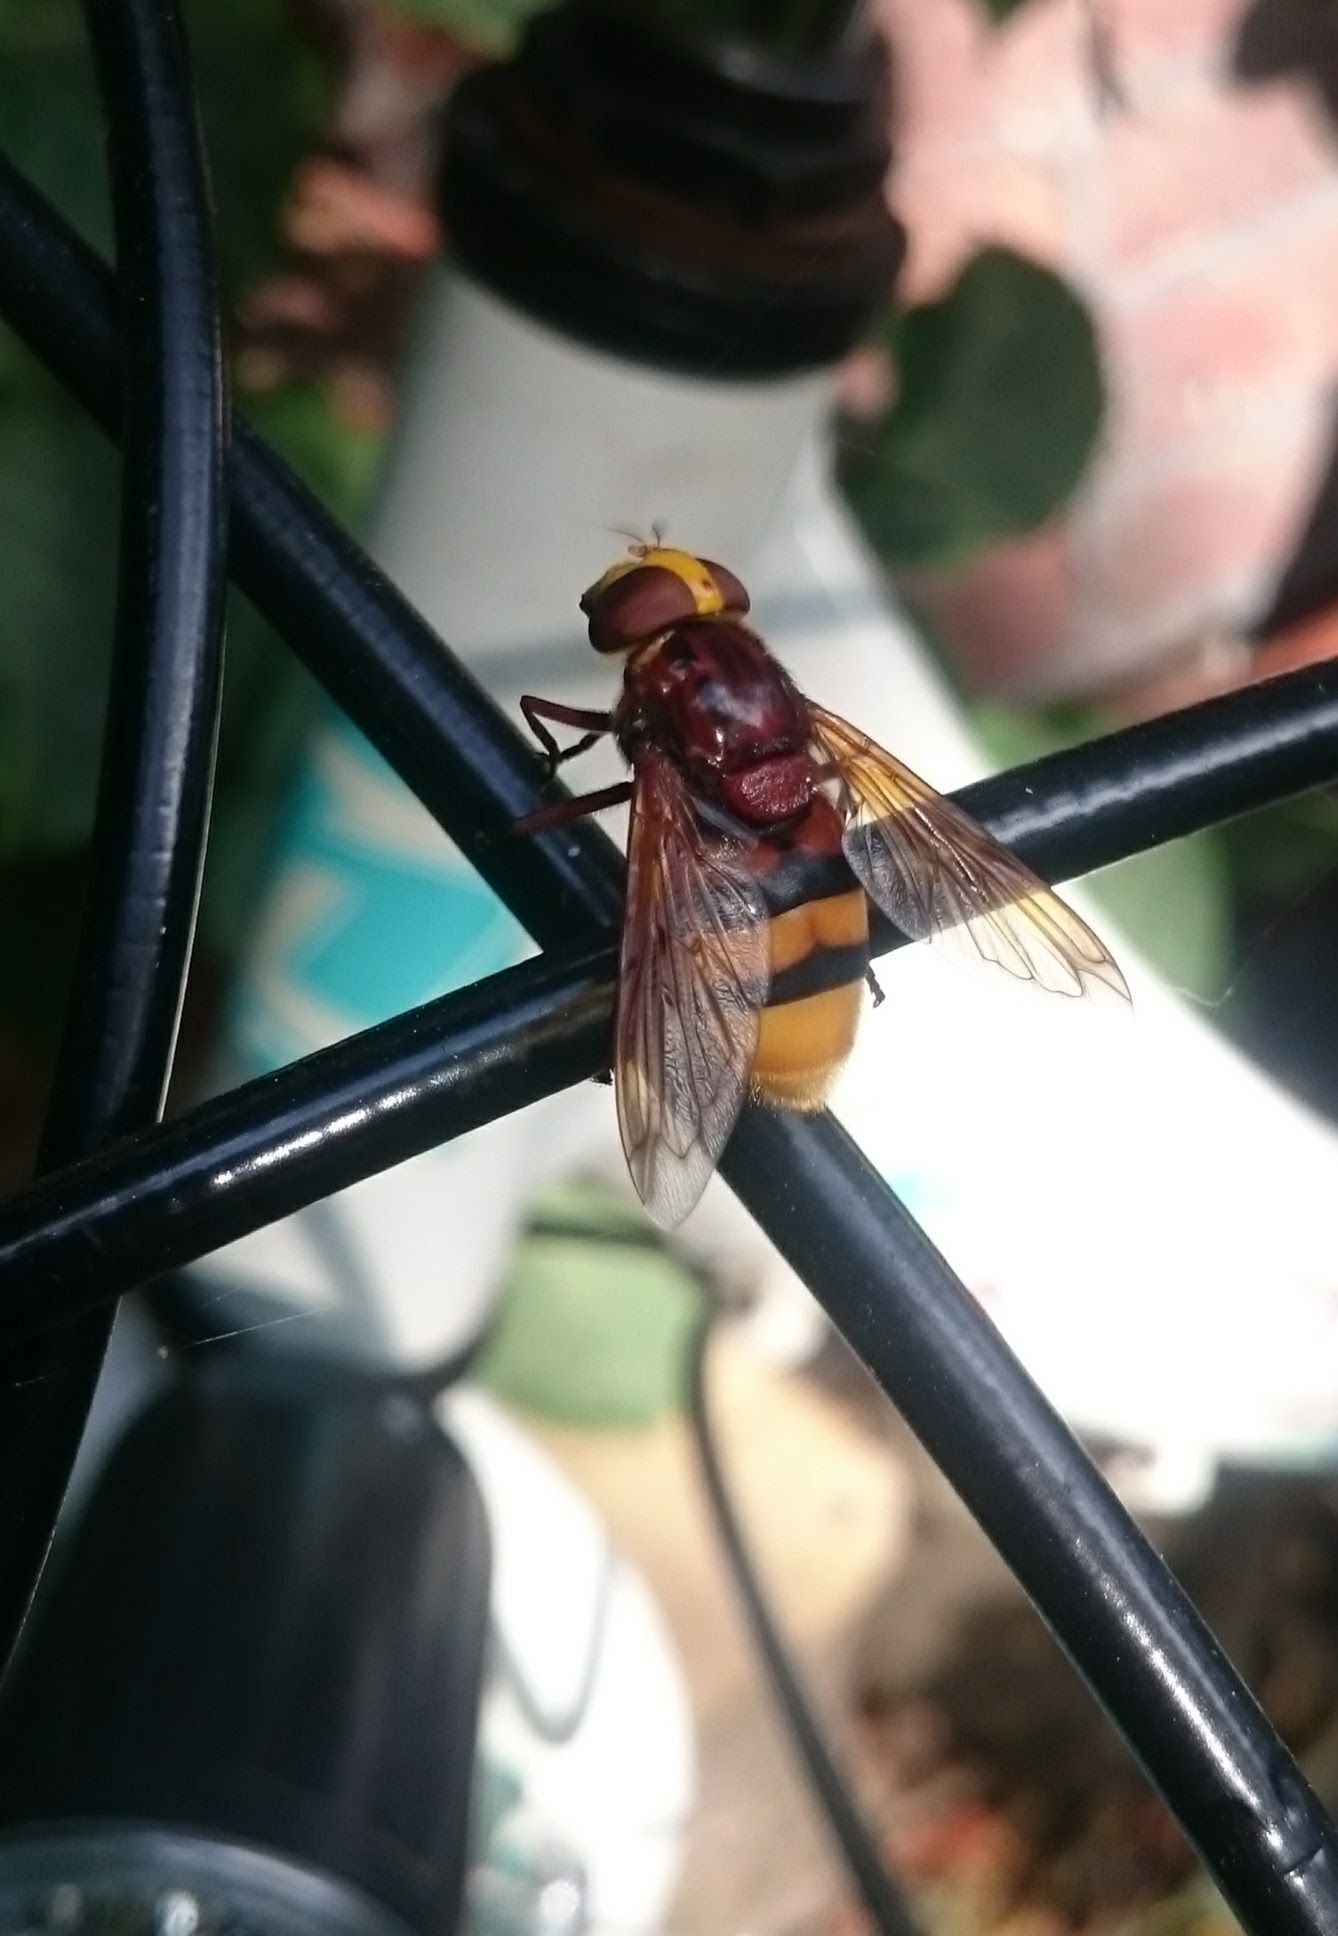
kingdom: Animalia
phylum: Arthropoda
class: Insecta
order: Diptera
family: Syrphidae
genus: Volucella
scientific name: Volucella zonaria
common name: Hornet hoverfly
